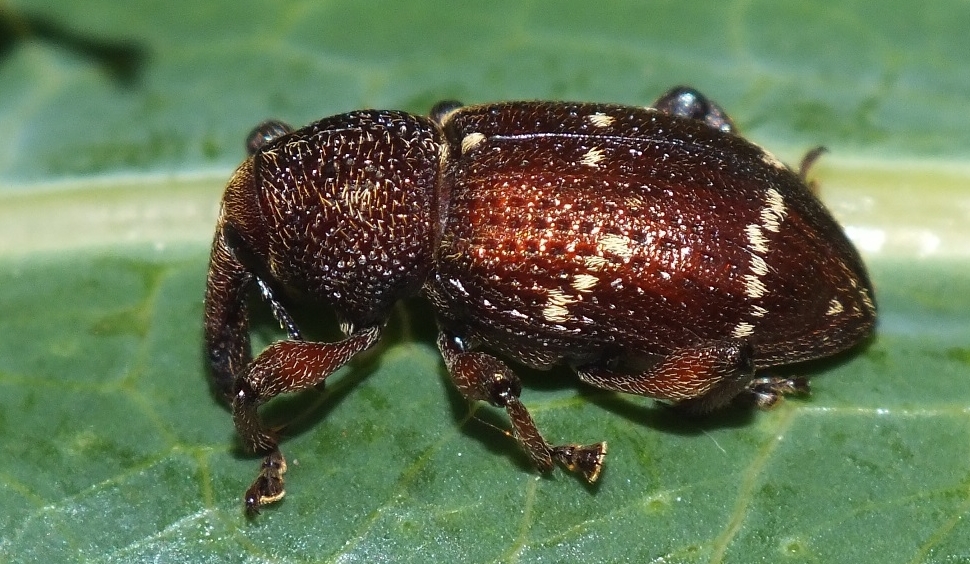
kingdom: Animalia
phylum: Arthropoda
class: Insecta
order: Coleoptera
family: Curculionidae
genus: Hylobius
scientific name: Hylobius transversovittatus
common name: Weevil
